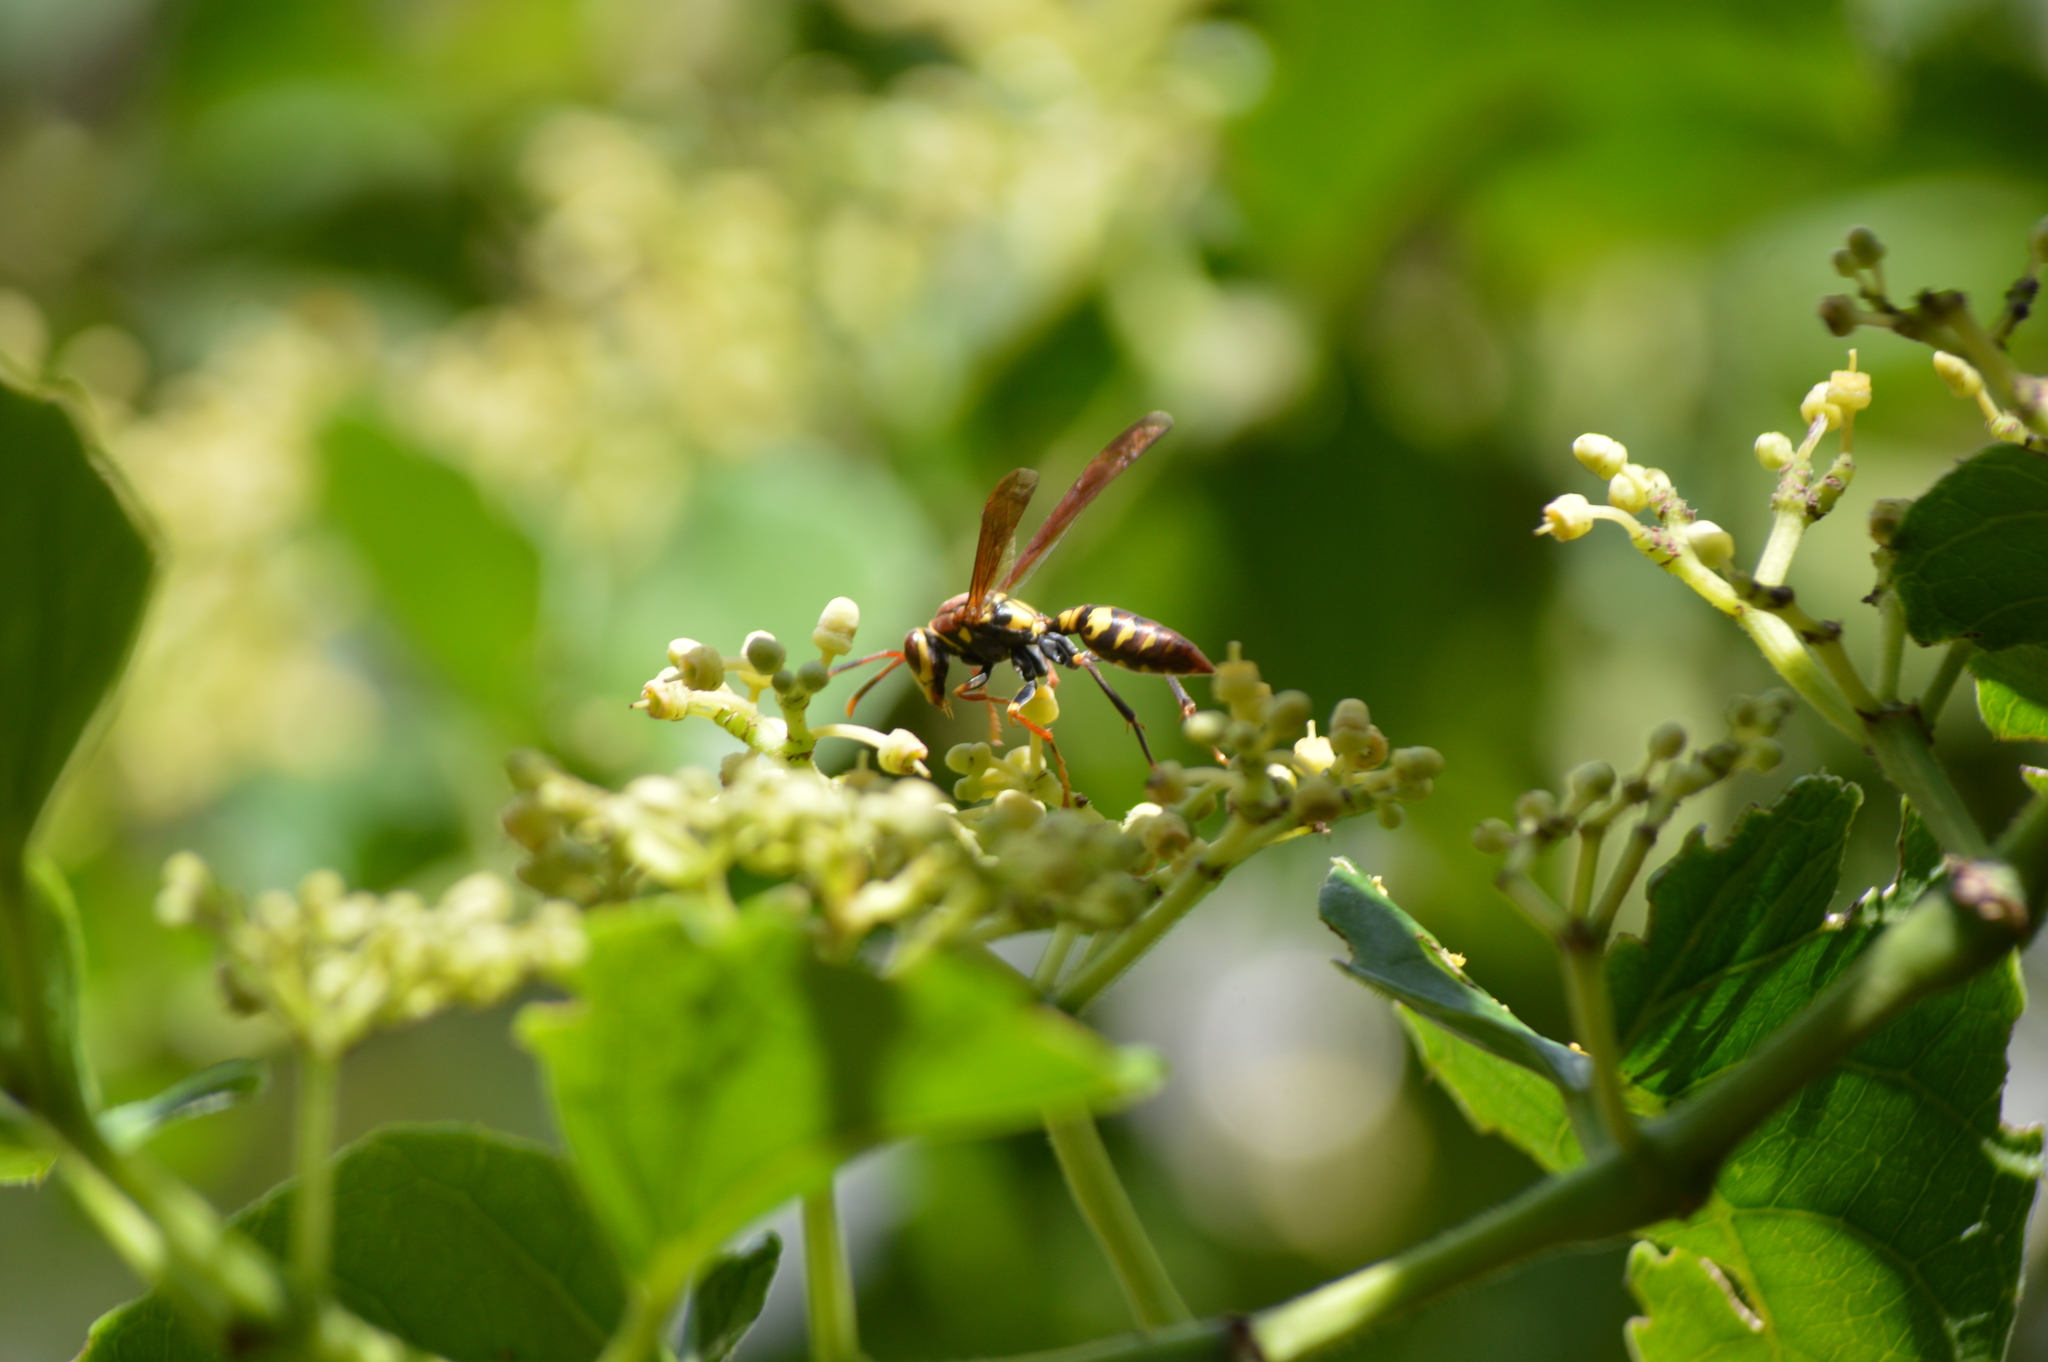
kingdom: Animalia
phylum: Arthropoda
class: Insecta
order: Hymenoptera
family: Eumenidae
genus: Polistes
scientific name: Polistes versicolor
